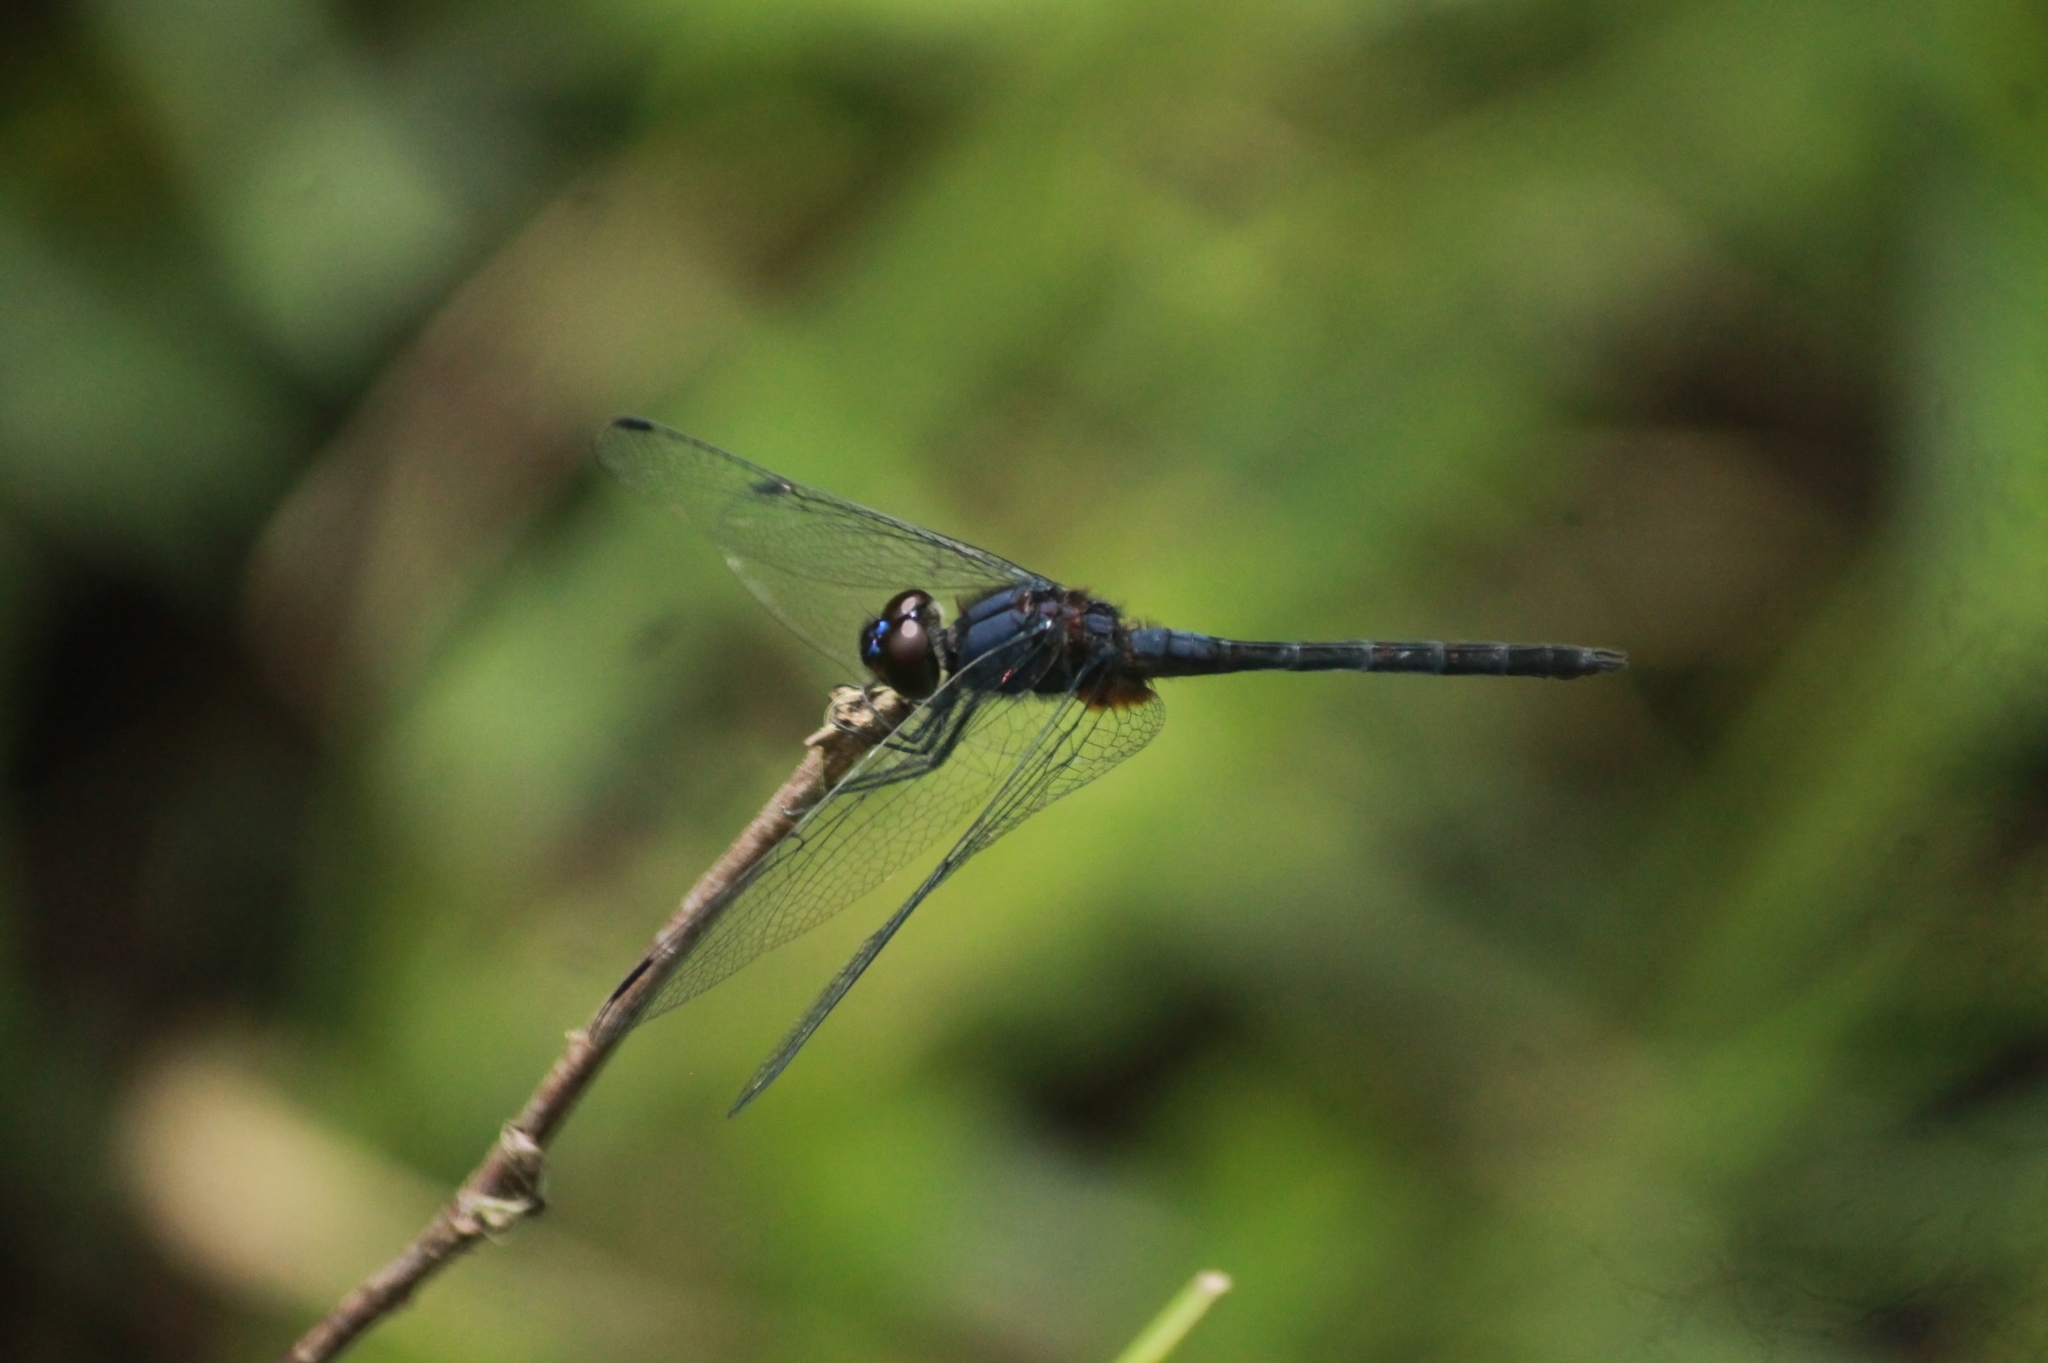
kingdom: Animalia
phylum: Arthropoda
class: Insecta
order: Odonata
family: Libellulidae
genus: Trithemis
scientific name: Trithemis festiva
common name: Indigo dropwing
